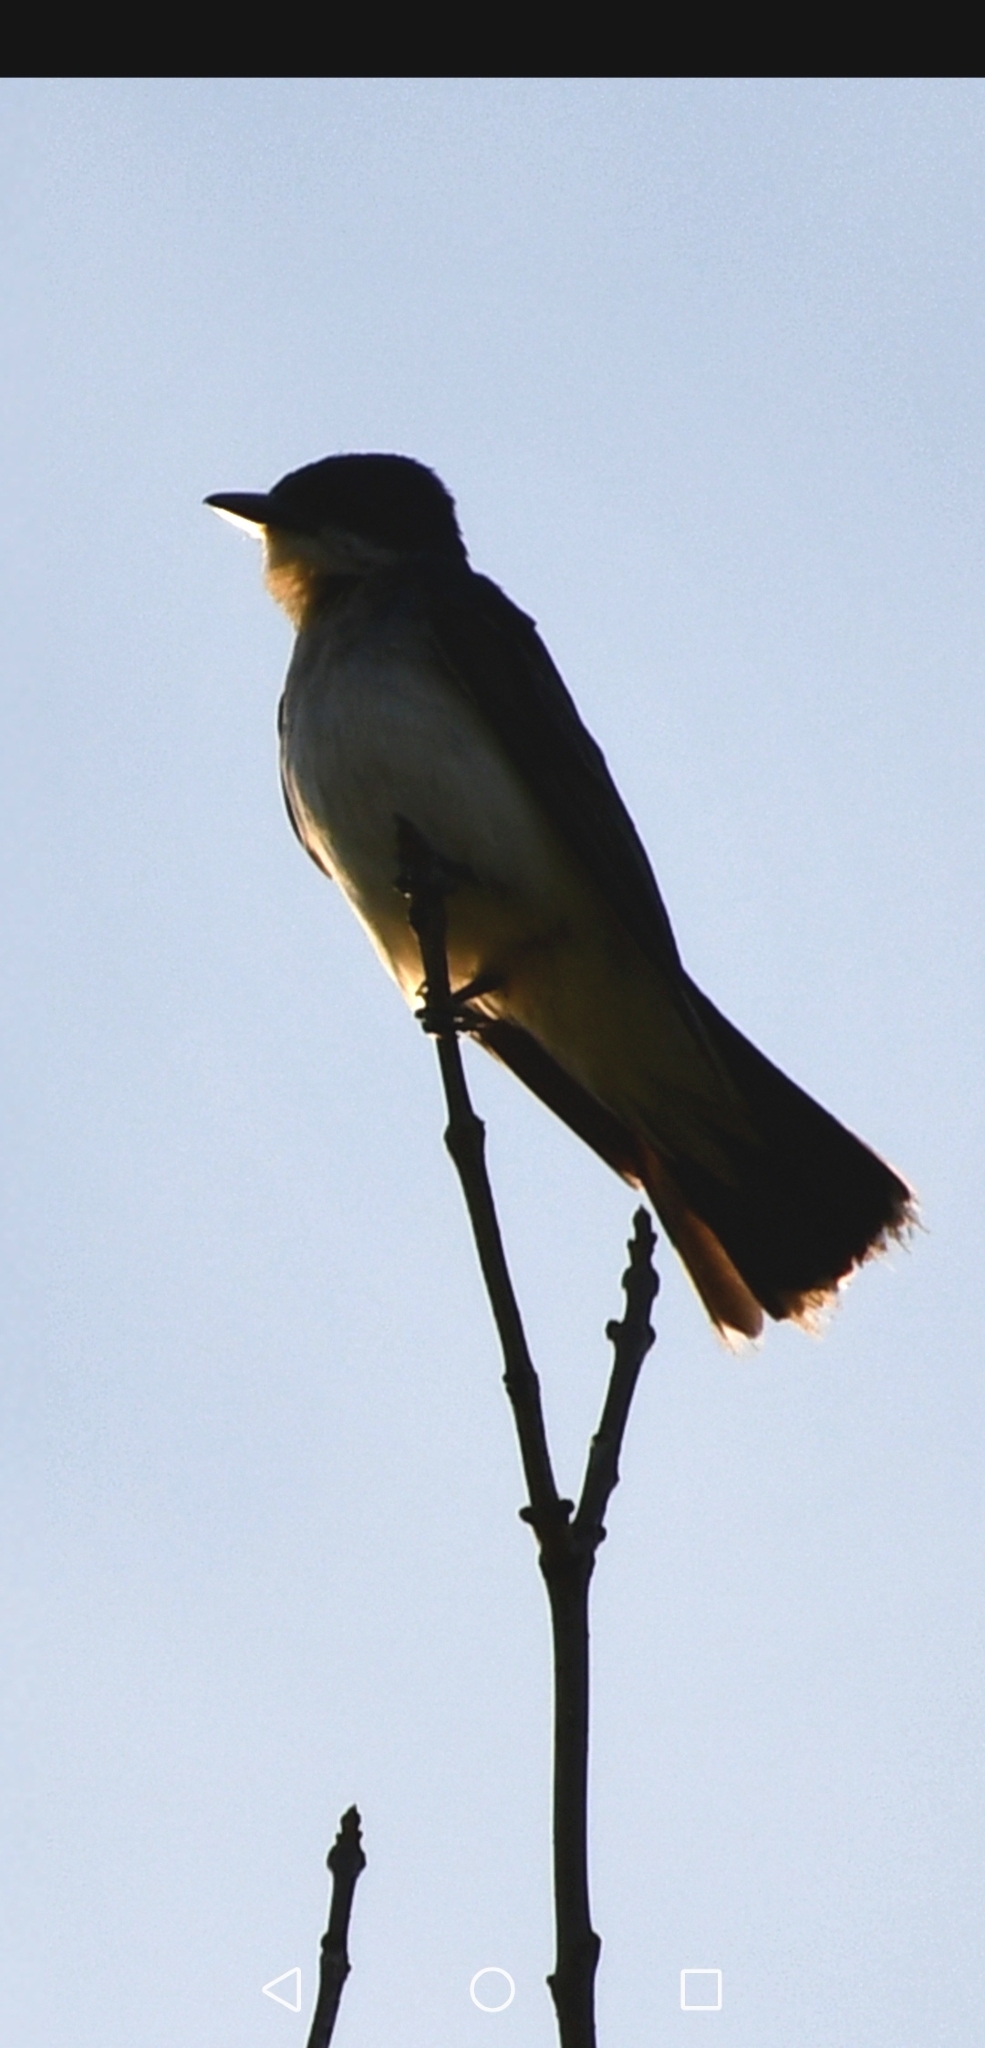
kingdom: Animalia
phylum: Chordata
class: Aves
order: Passeriformes
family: Tyrannidae
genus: Tyrannus
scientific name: Tyrannus tyrannus
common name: Eastern kingbird
